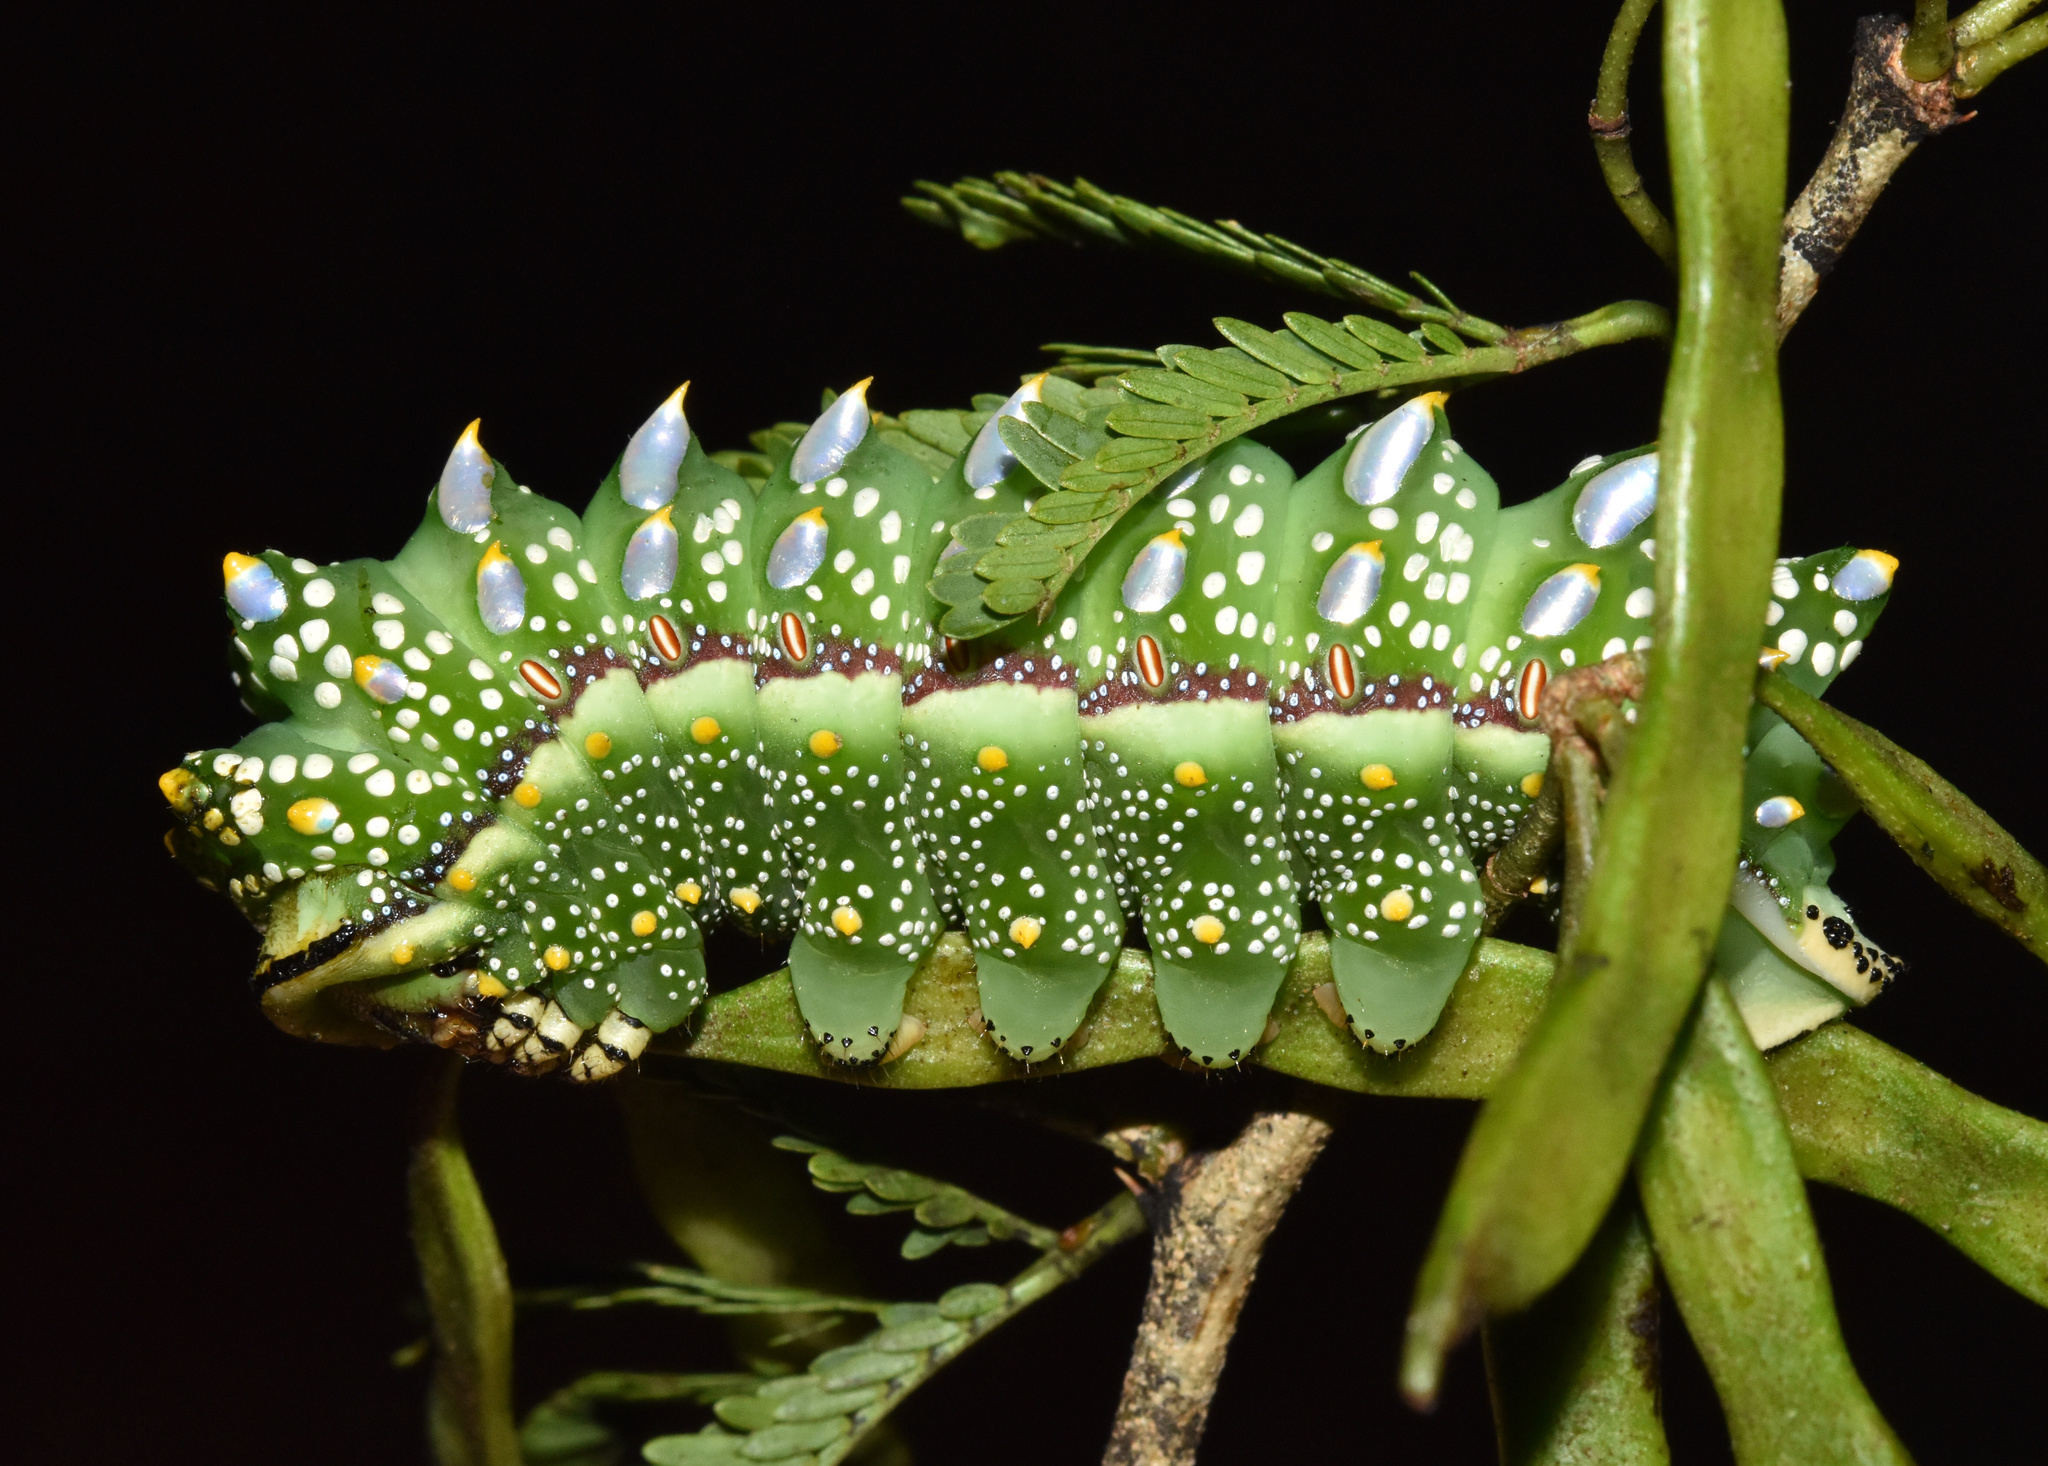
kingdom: Animalia
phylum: Arthropoda
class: Insecta
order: Lepidoptera
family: Saturniidae
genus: Gynanisa
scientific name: Gynanisa maja
